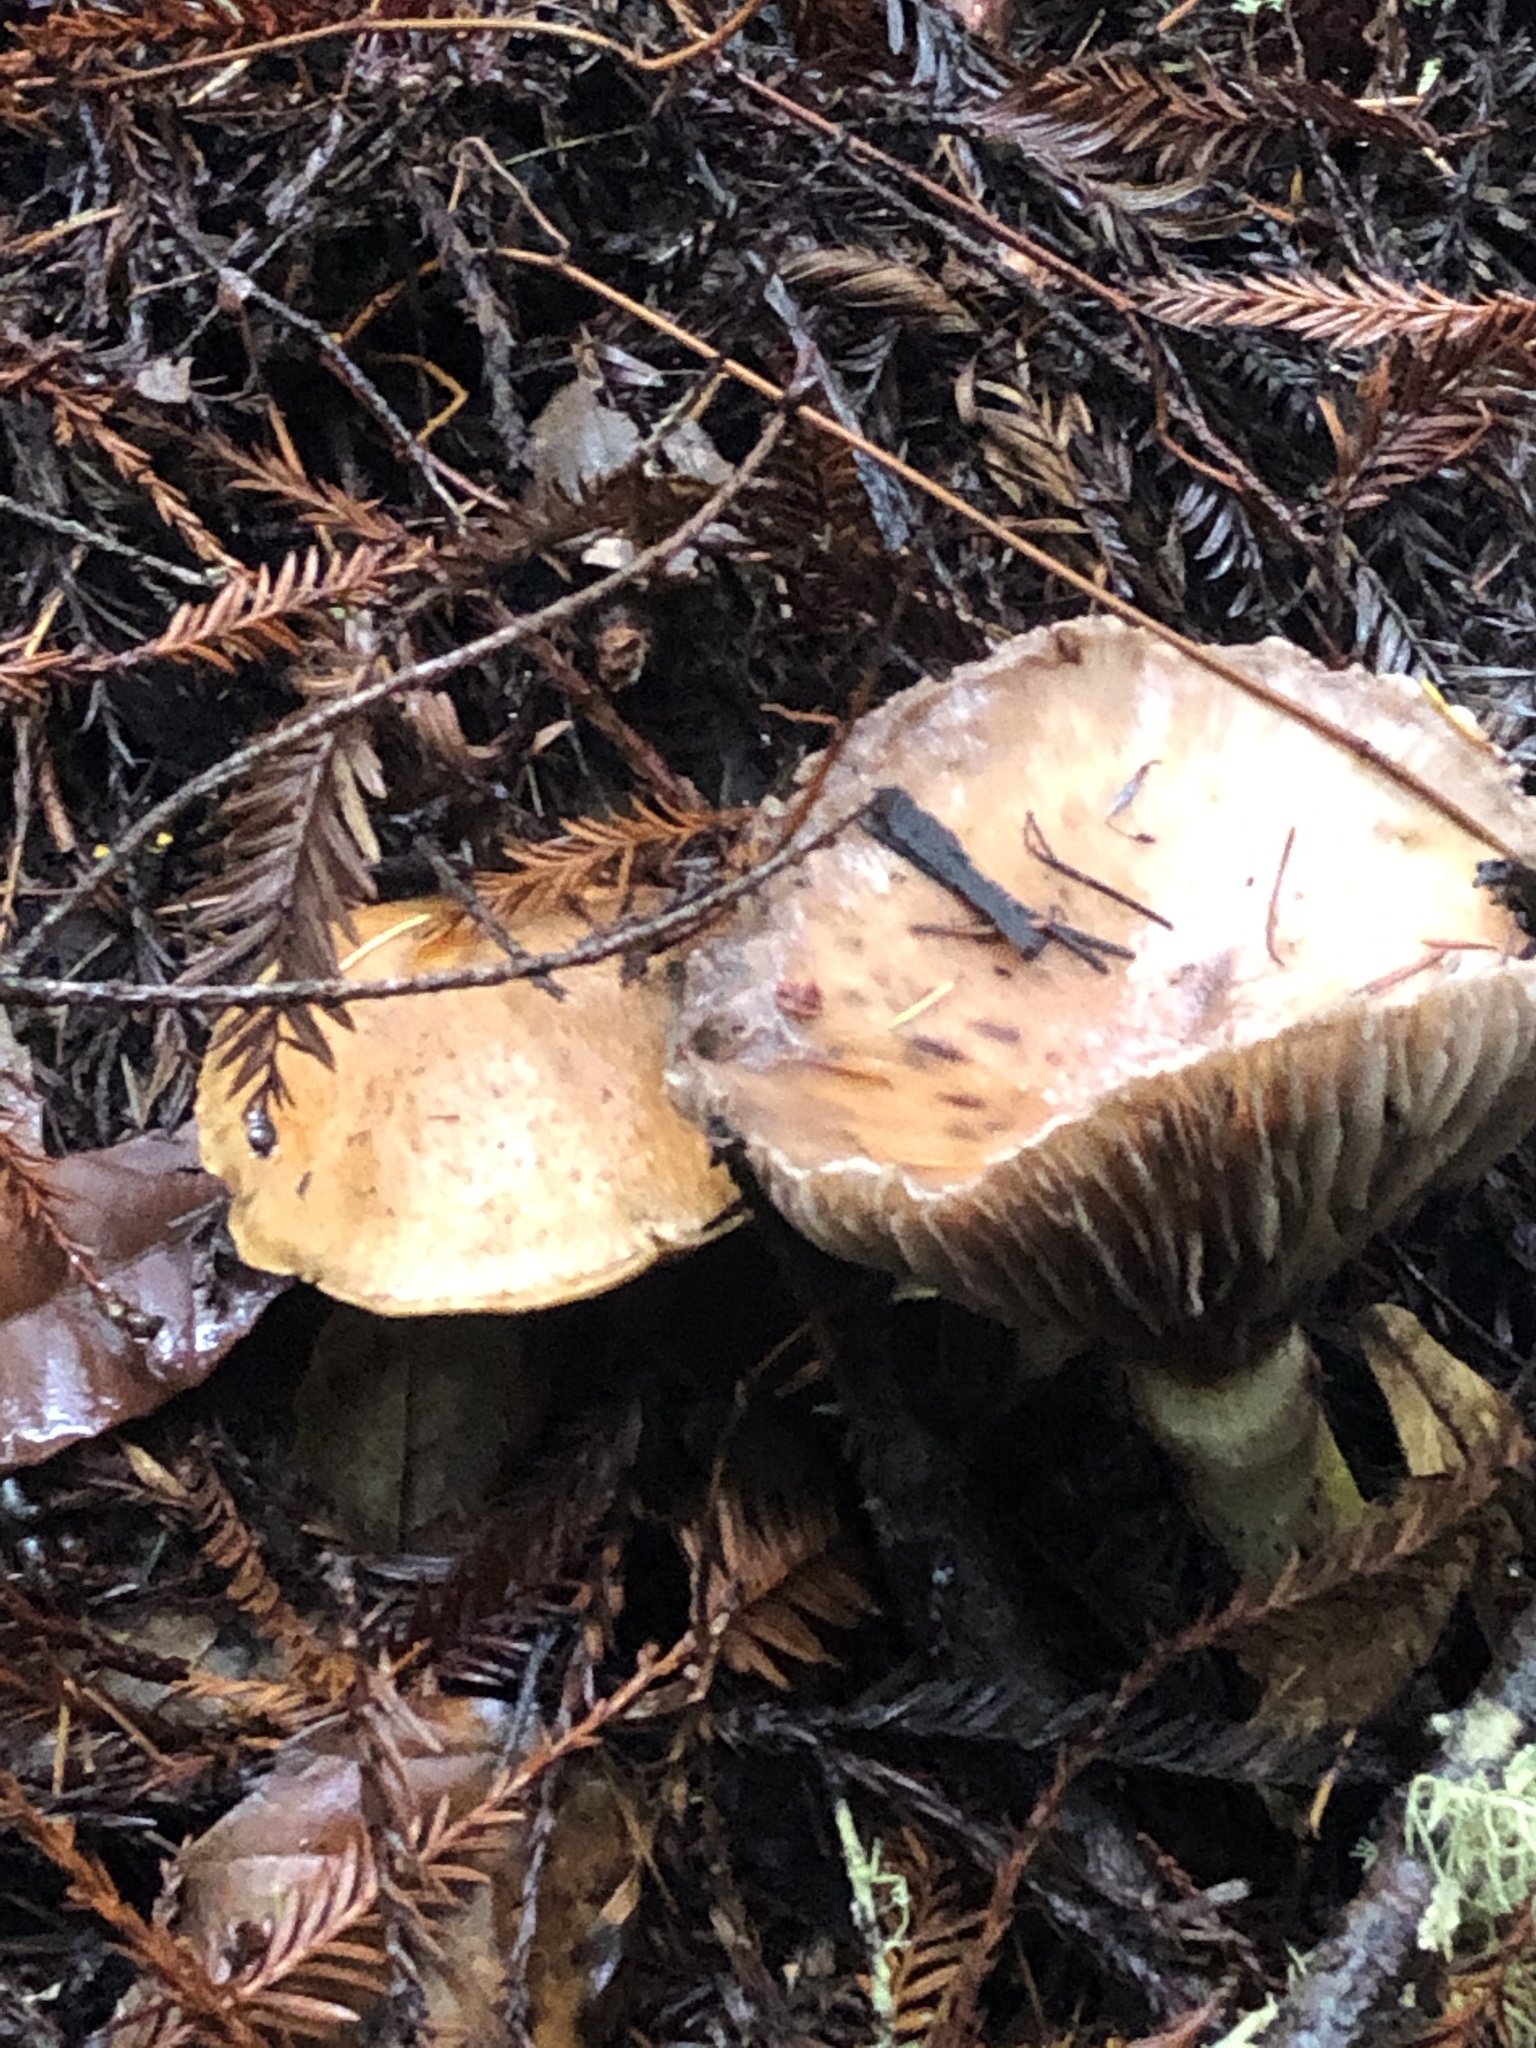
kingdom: Fungi
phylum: Basidiomycota
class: Agaricomycetes
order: Boletales
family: Gomphidiaceae
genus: Gomphidius
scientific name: Gomphidius oregonensis
